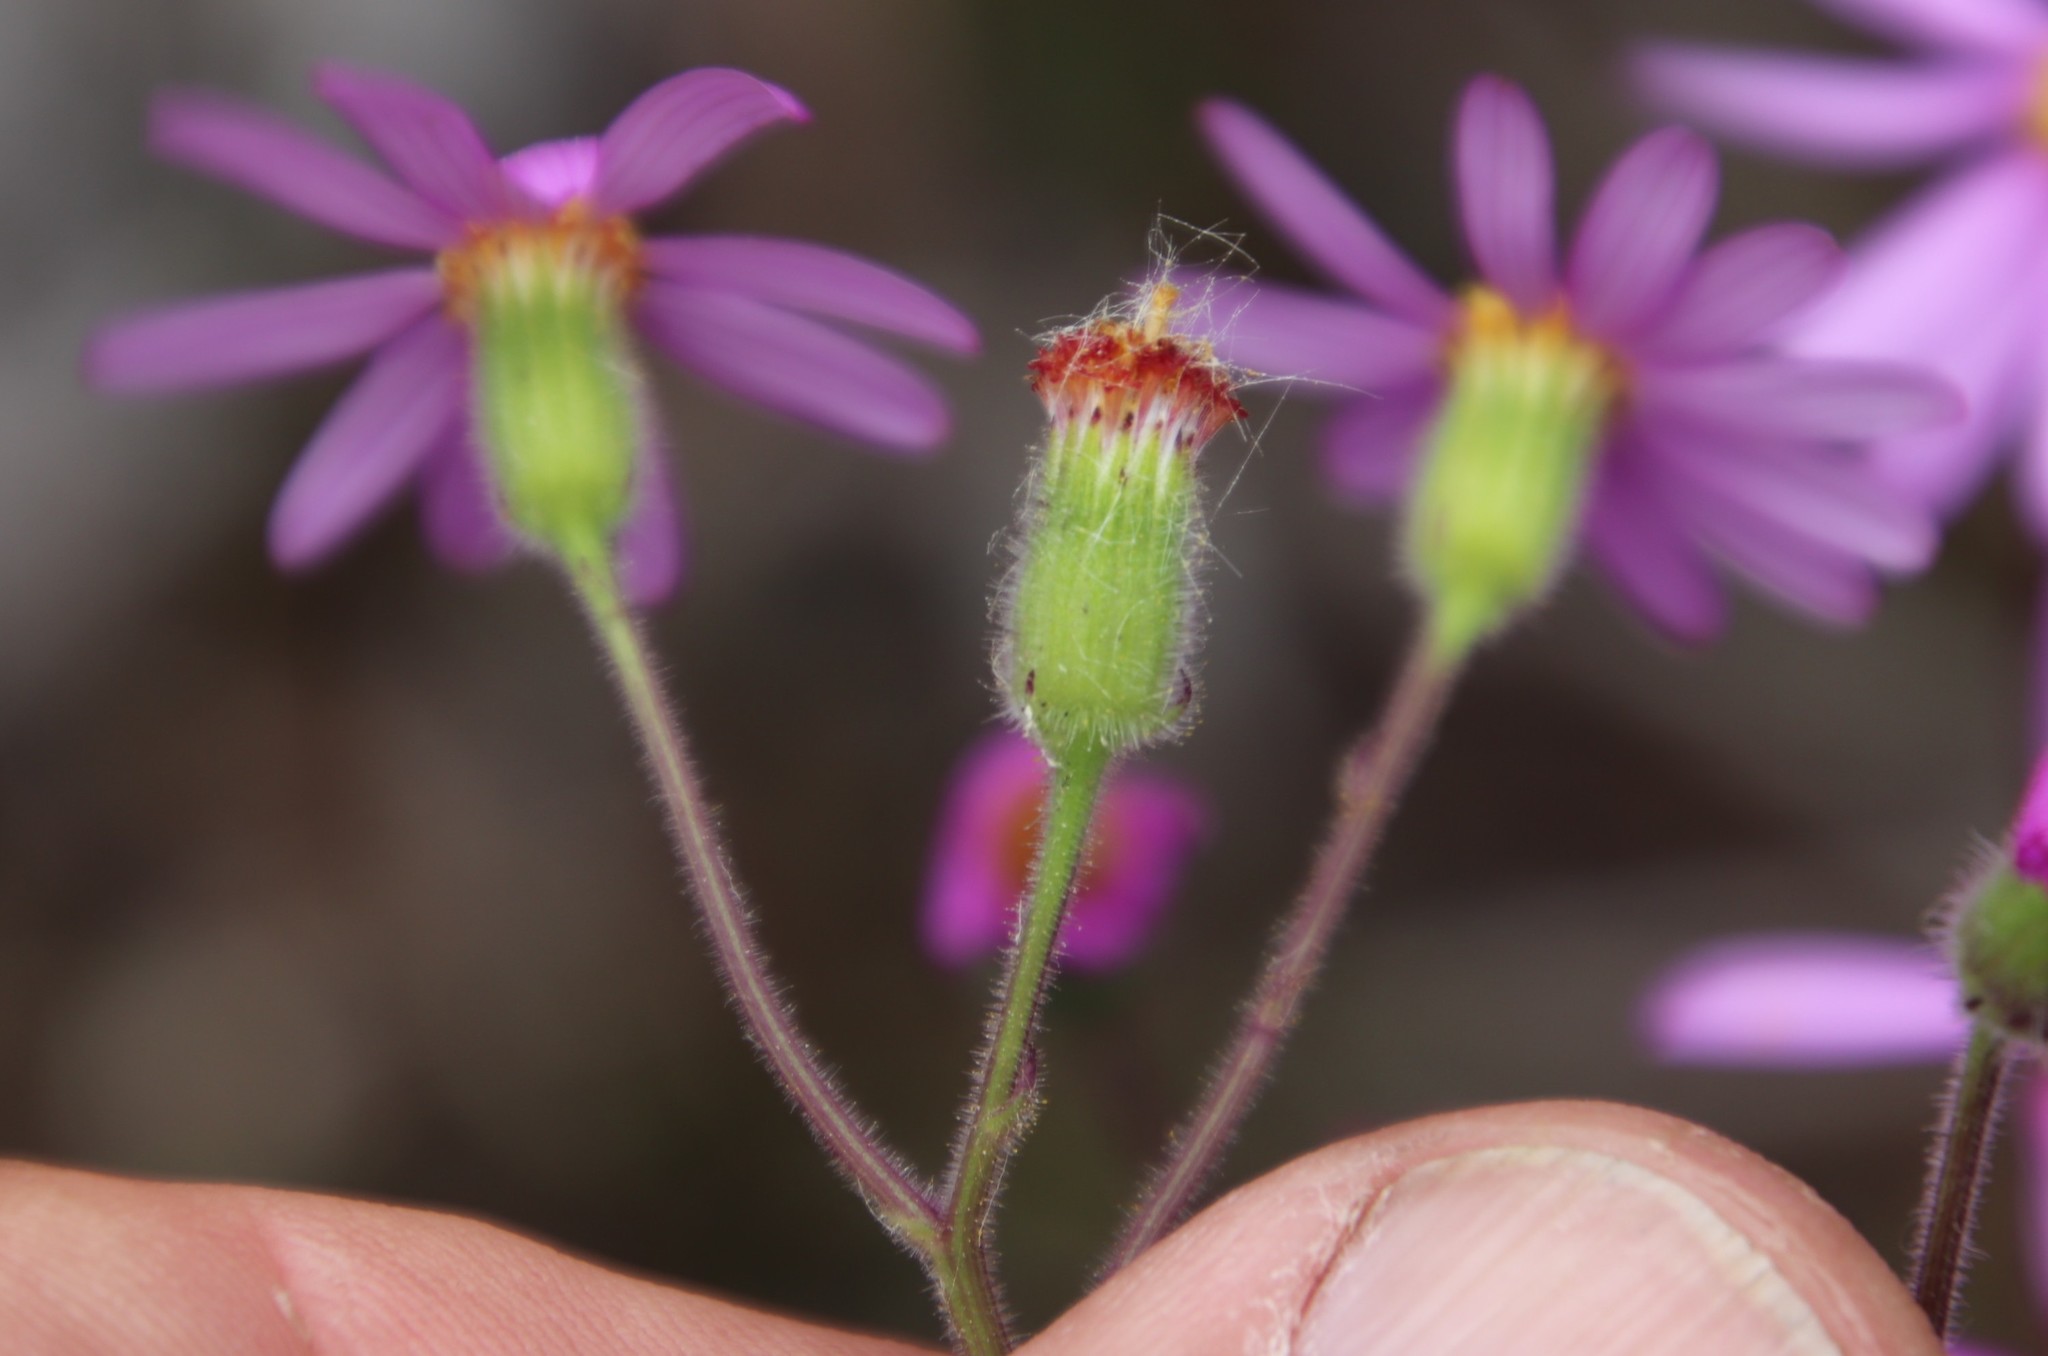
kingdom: Plantae
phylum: Tracheophyta
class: Magnoliopsida
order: Asterales
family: Asteraceae
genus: Senecio
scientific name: Senecio arenarius
